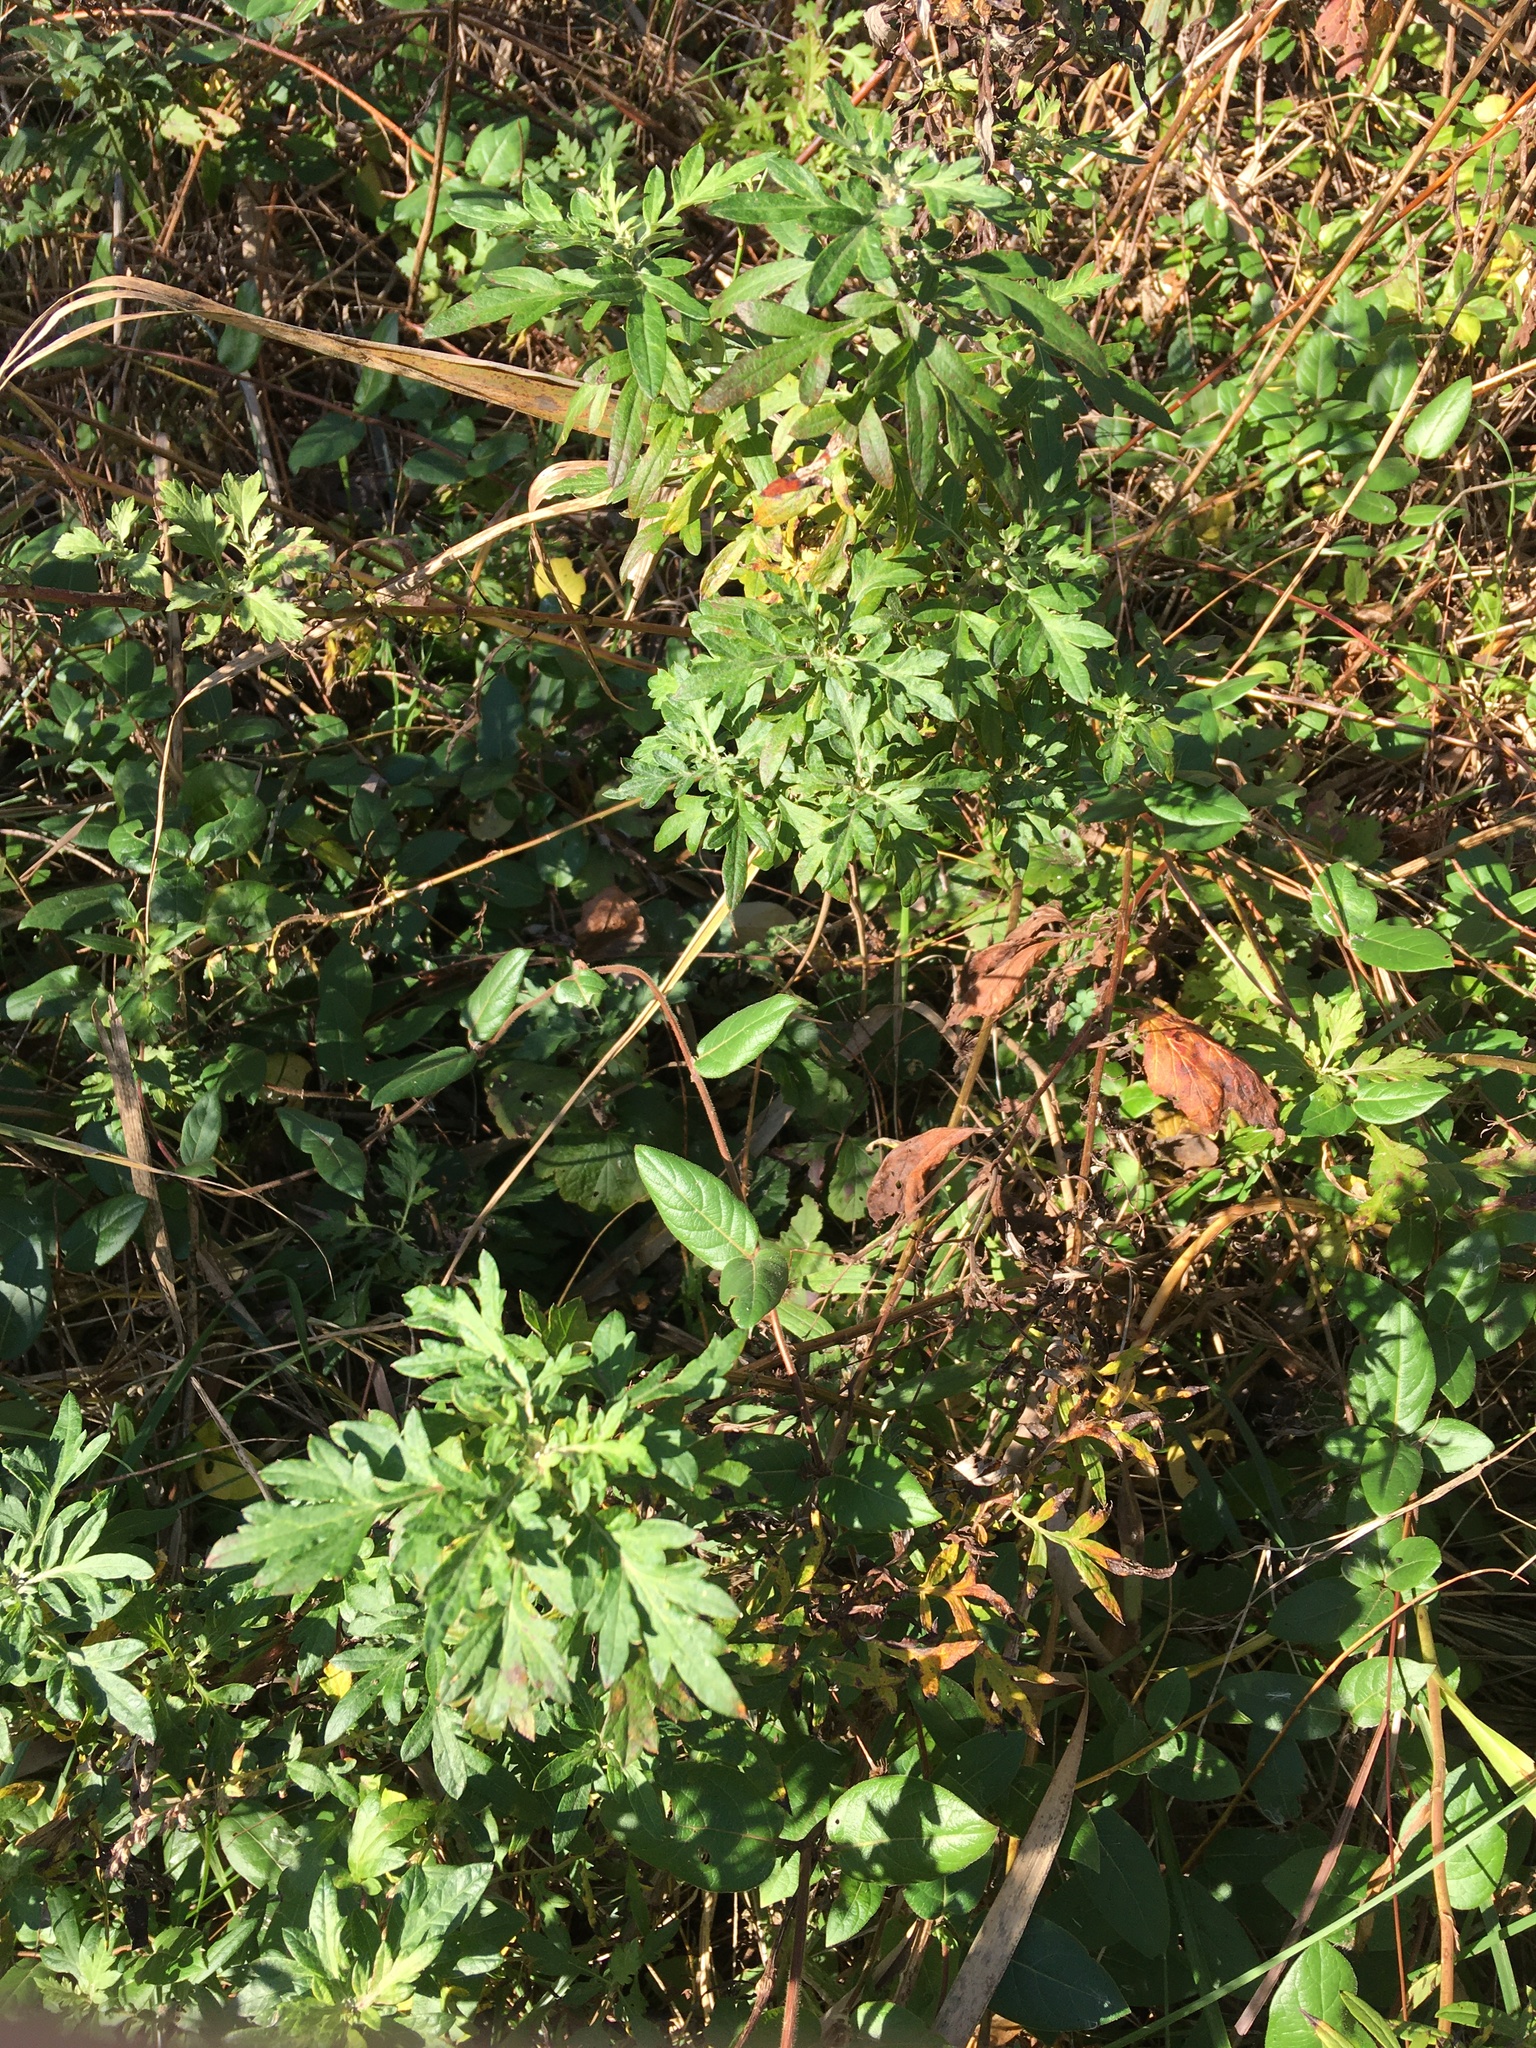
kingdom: Plantae
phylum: Tracheophyta
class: Magnoliopsida
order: Asterales
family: Asteraceae
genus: Artemisia
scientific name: Artemisia vulgaris
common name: Mugwort
